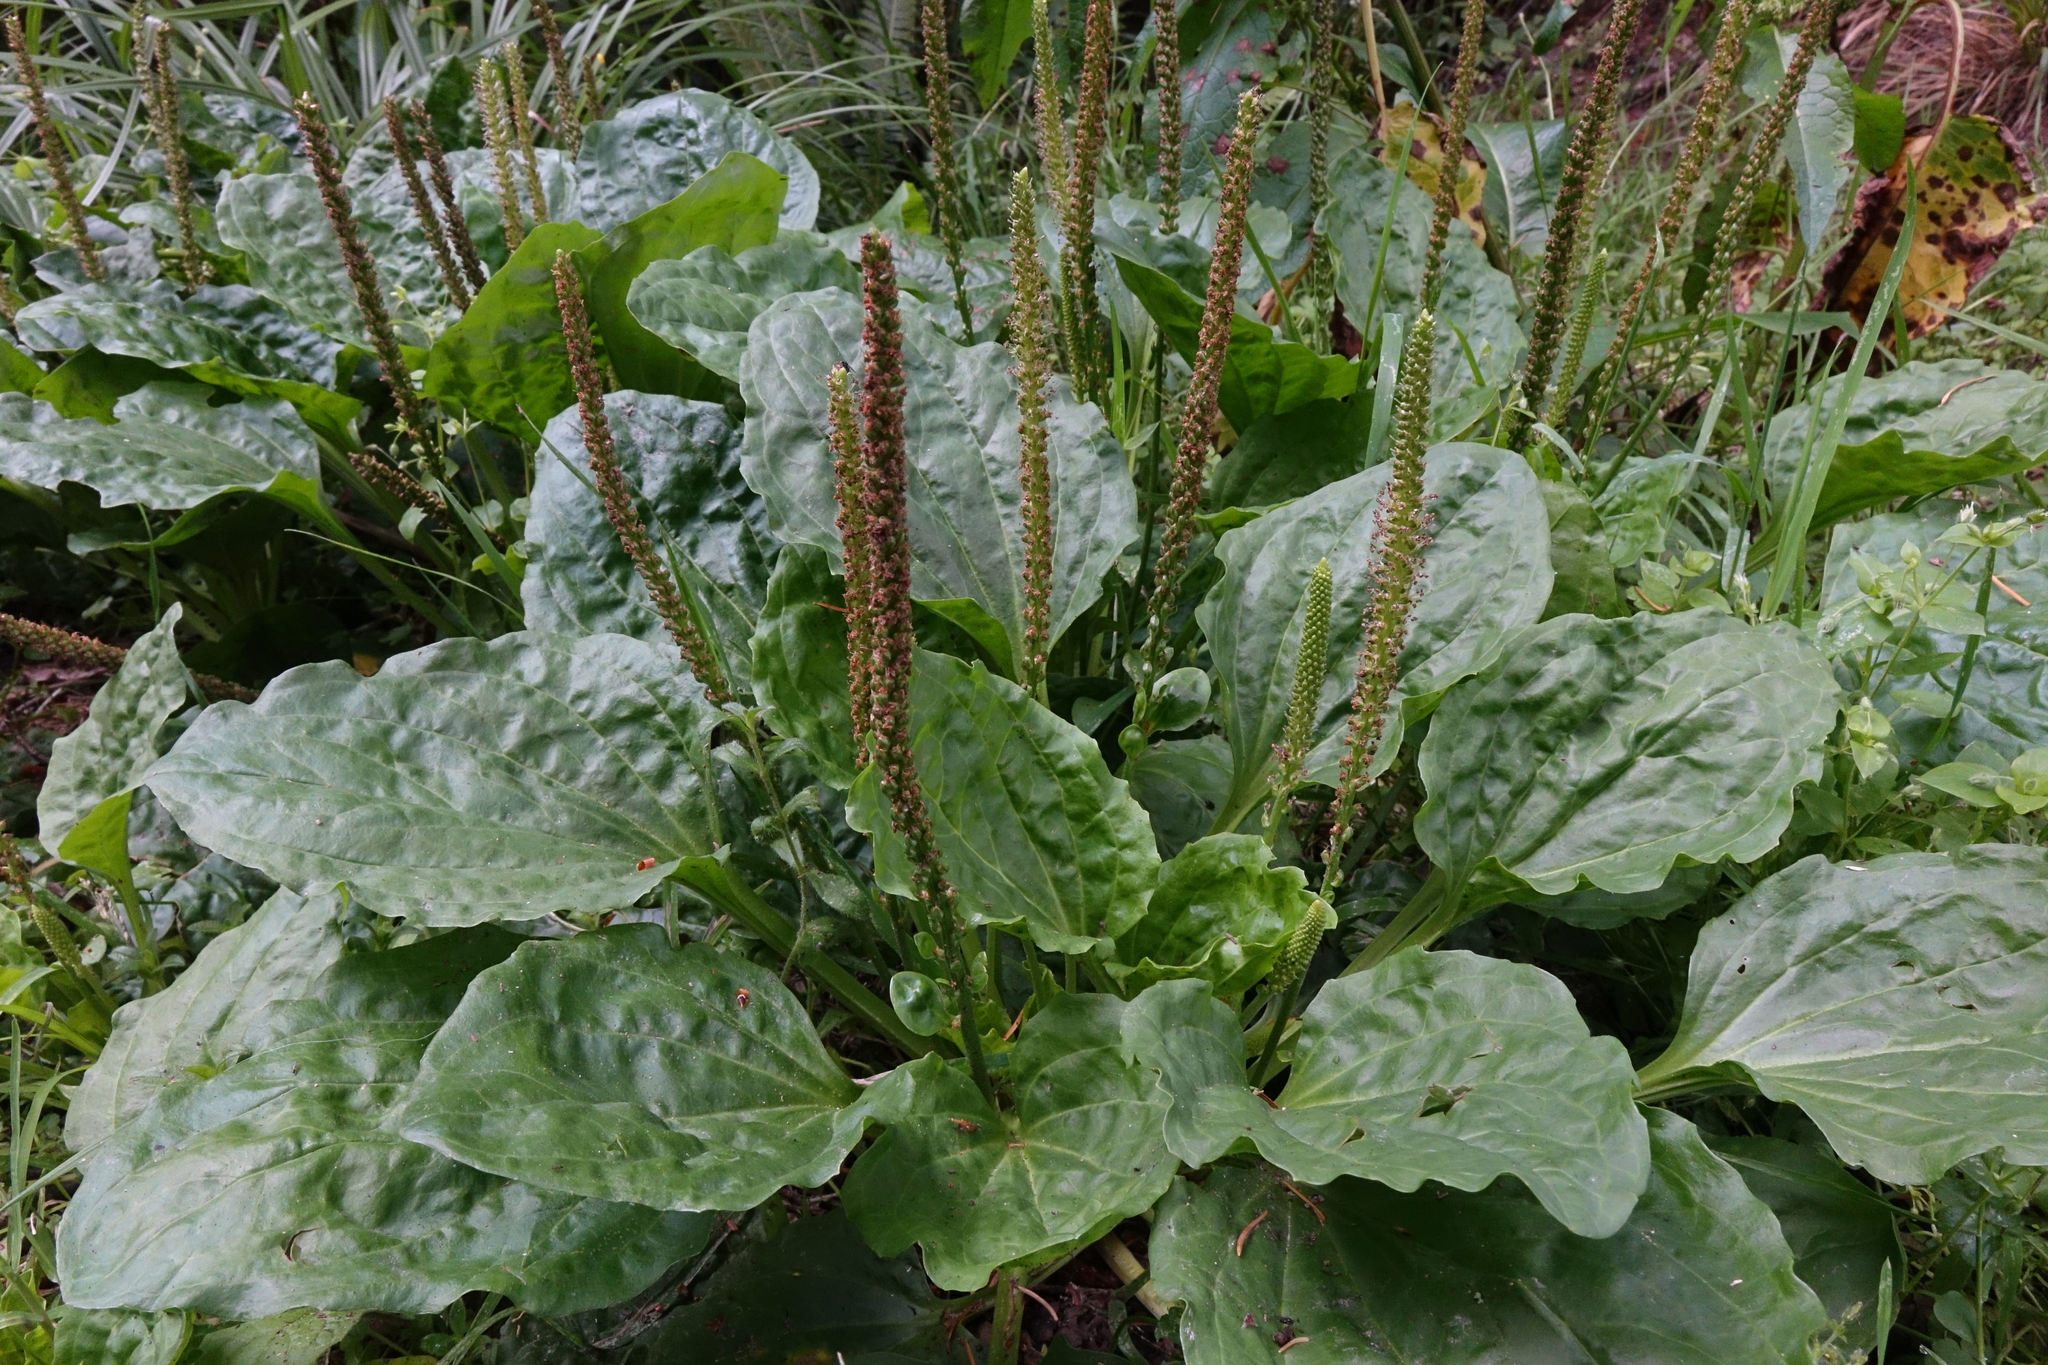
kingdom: Plantae
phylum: Tracheophyta
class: Magnoliopsida
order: Lamiales
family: Plantaginaceae
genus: Plantago
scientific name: Plantago major
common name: Common plantain
